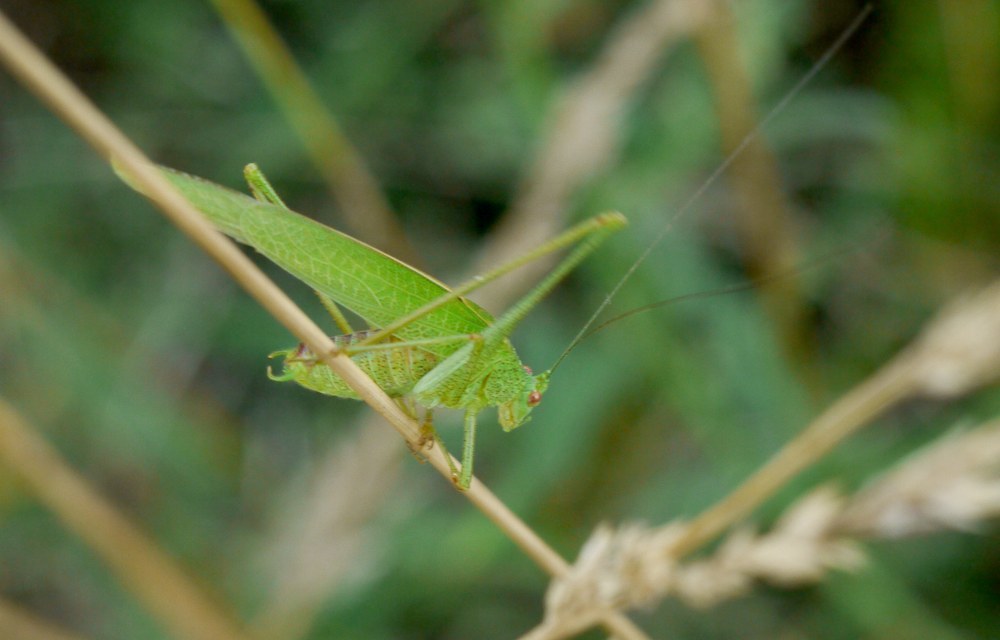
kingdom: Animalia
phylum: Arthropoda
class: Insecta
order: Orthoptera
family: Tettigoniidae
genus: Phaneroptera
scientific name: Phaneroptera nana
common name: Southern sickle bush-cricket
